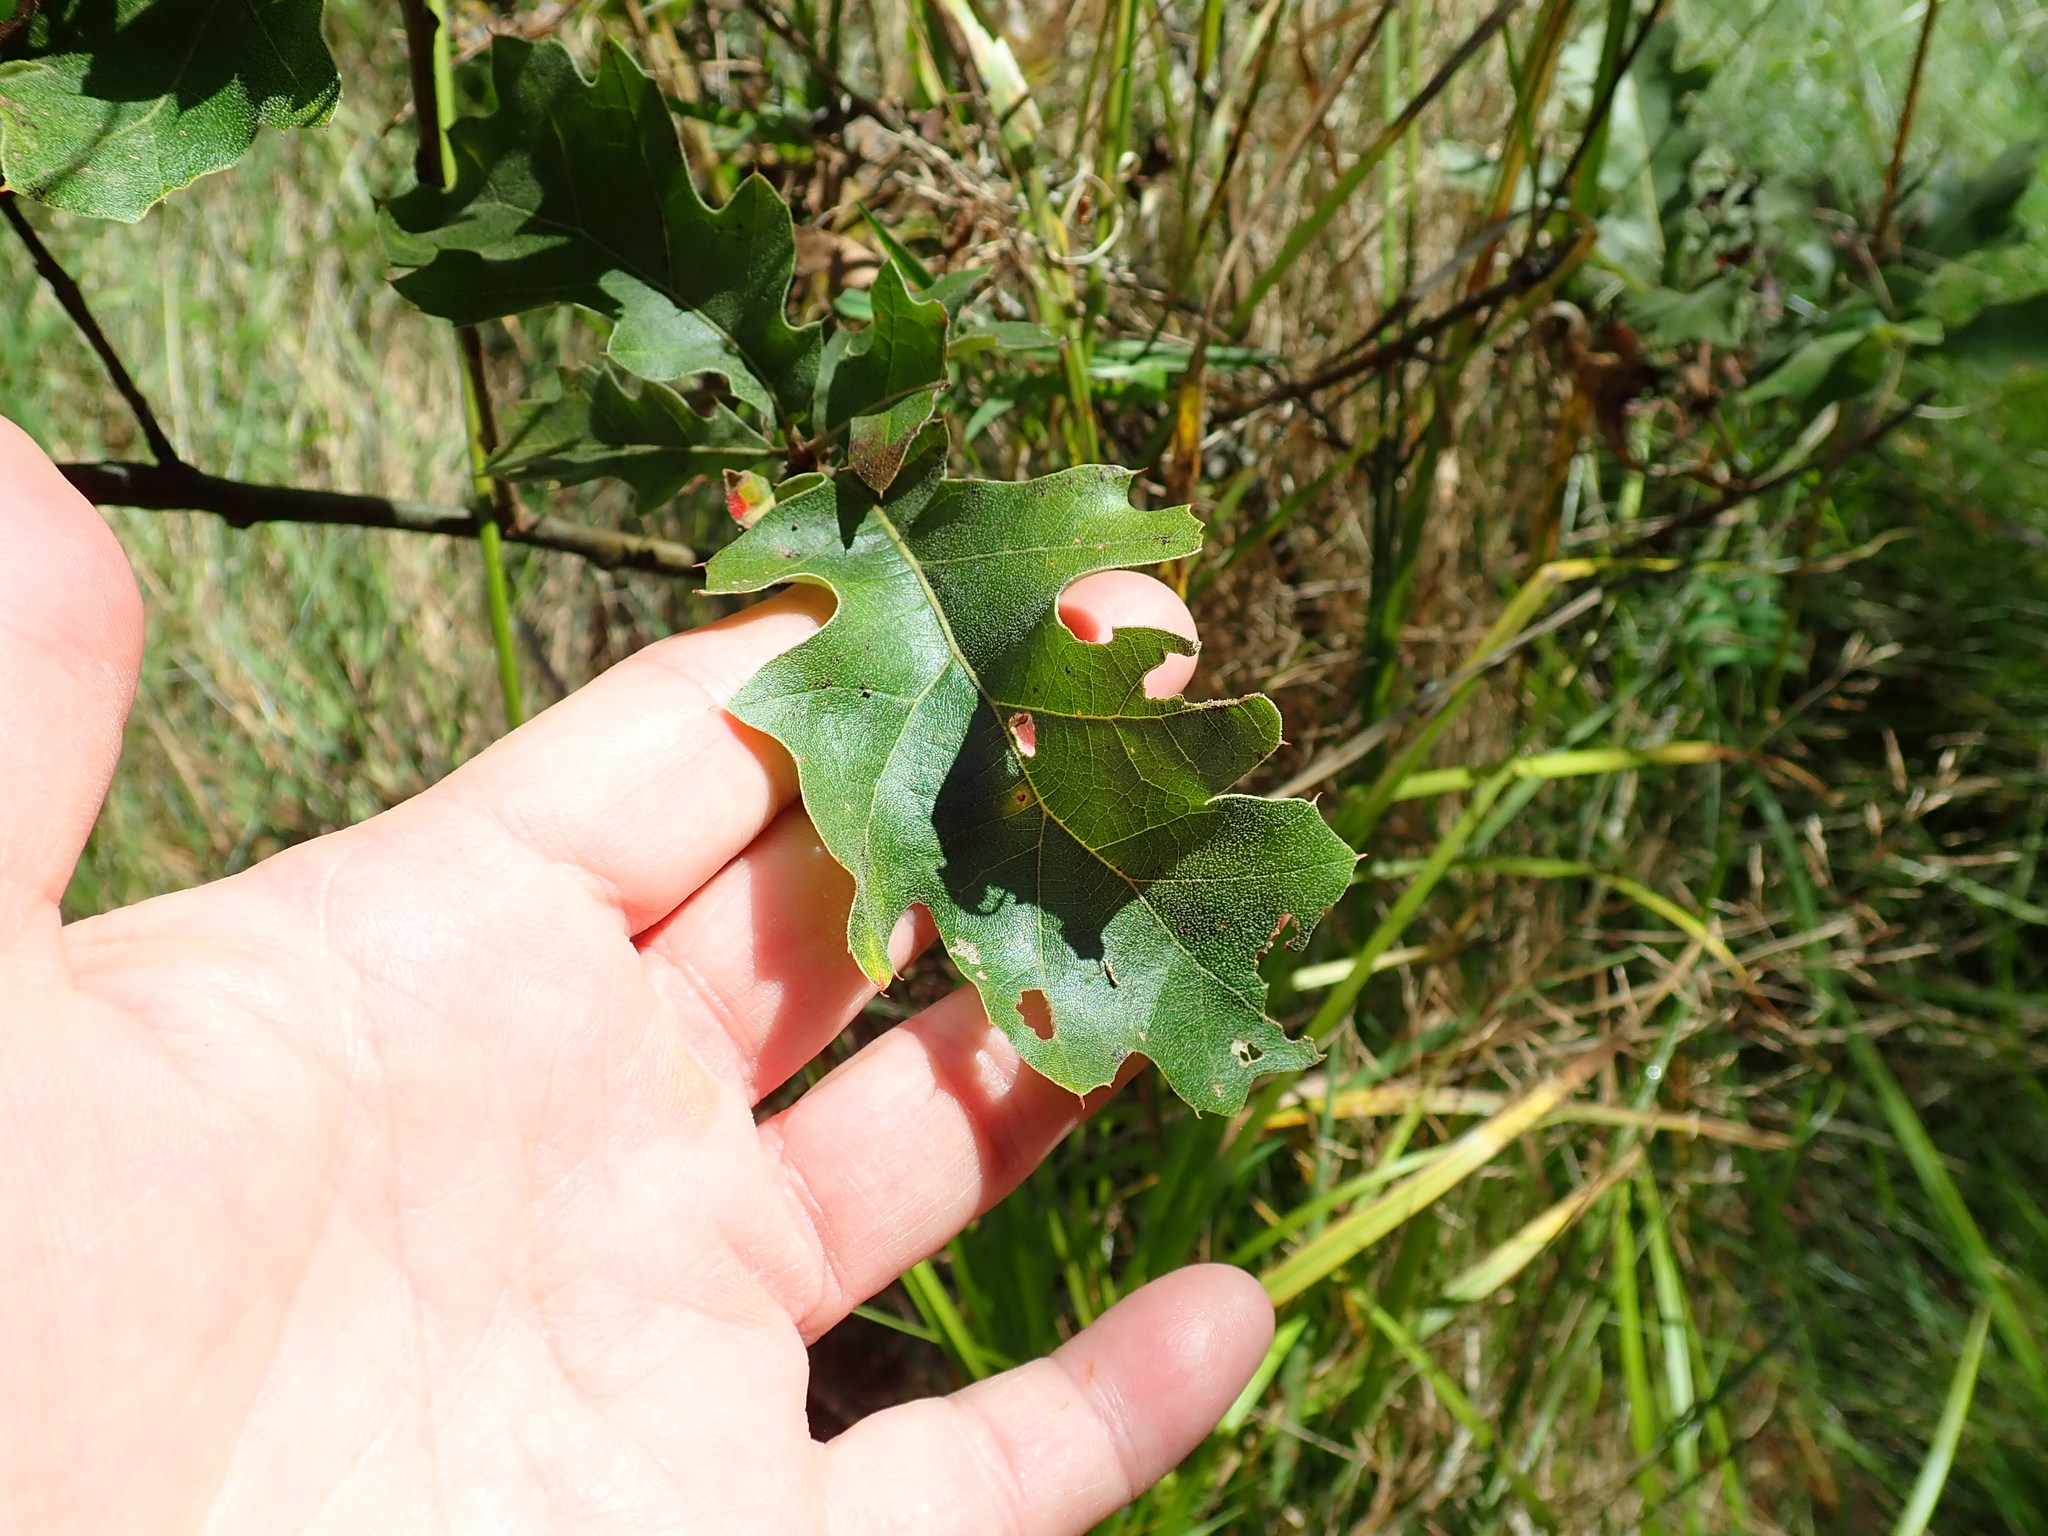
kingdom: Plantae
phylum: Tracheophyta
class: Magnoliopsida
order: Fagales
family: Fagaceae
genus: Quercus
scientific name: Quercus ilicifolia
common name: Bear oak
